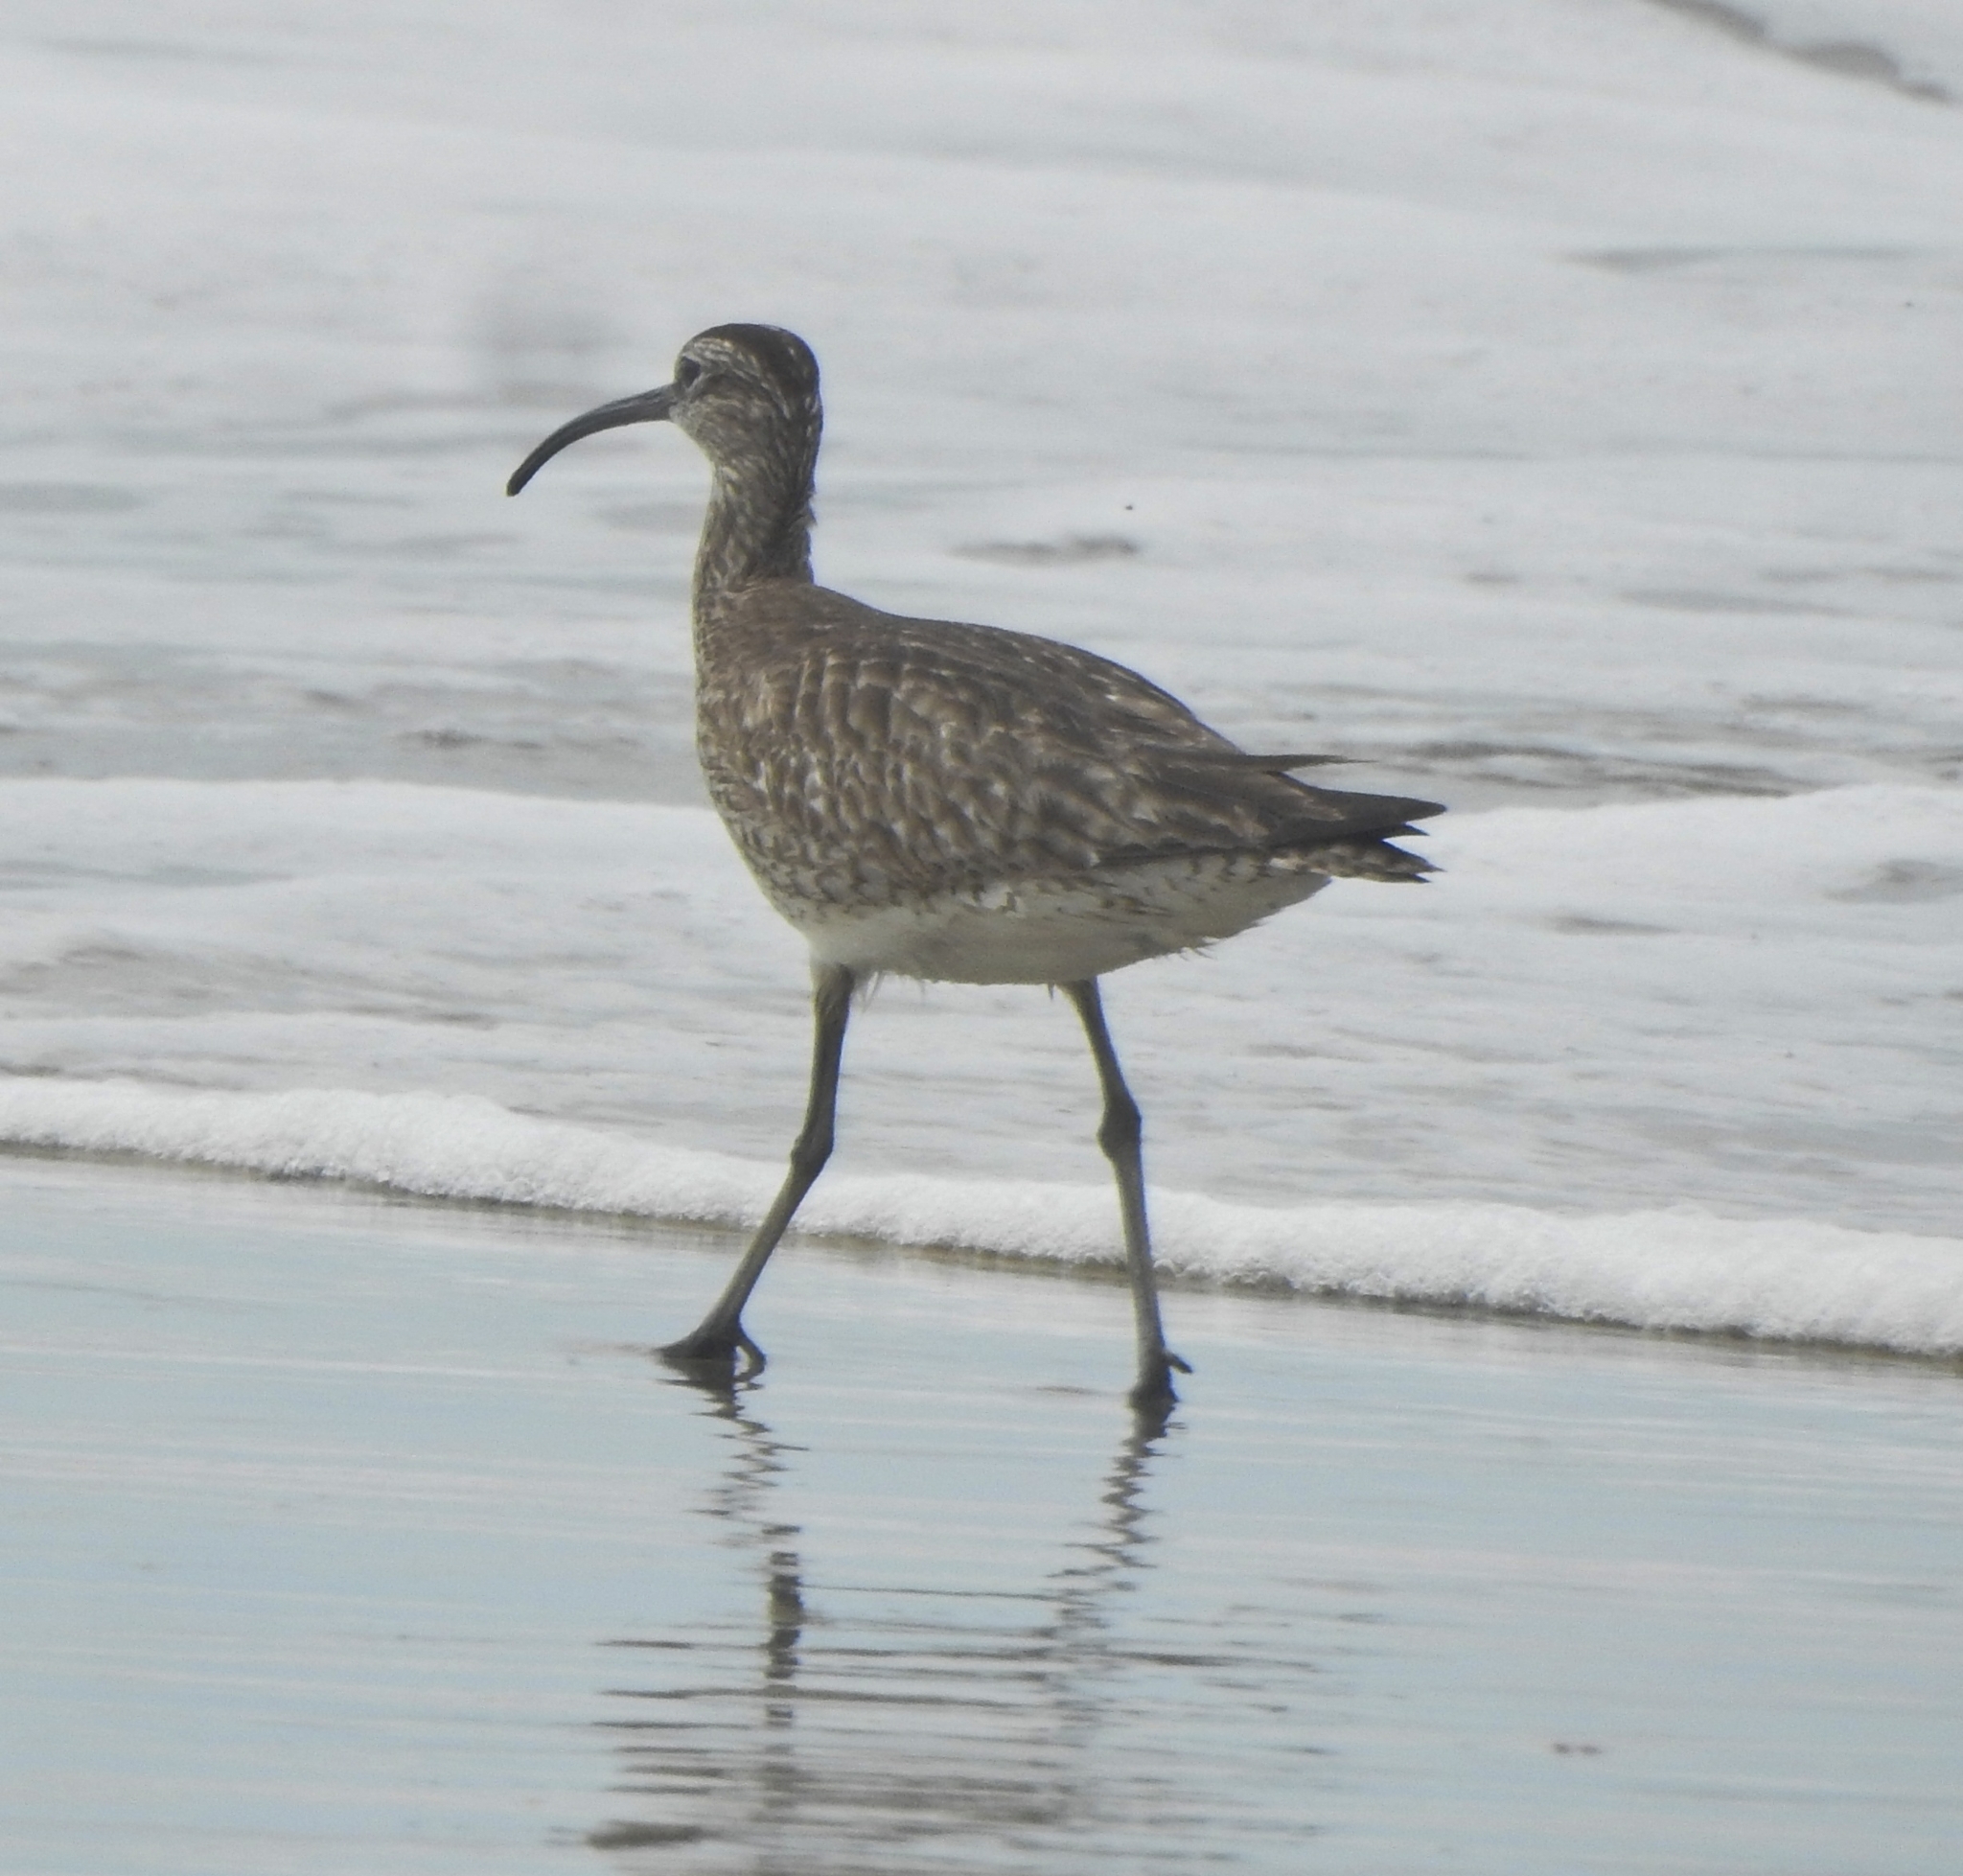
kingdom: Animalia
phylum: Chordata
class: Aves
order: Charadriiformes
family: Scolopacidae
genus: Numenius
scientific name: Numenius phaeopus
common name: Whimbrel
